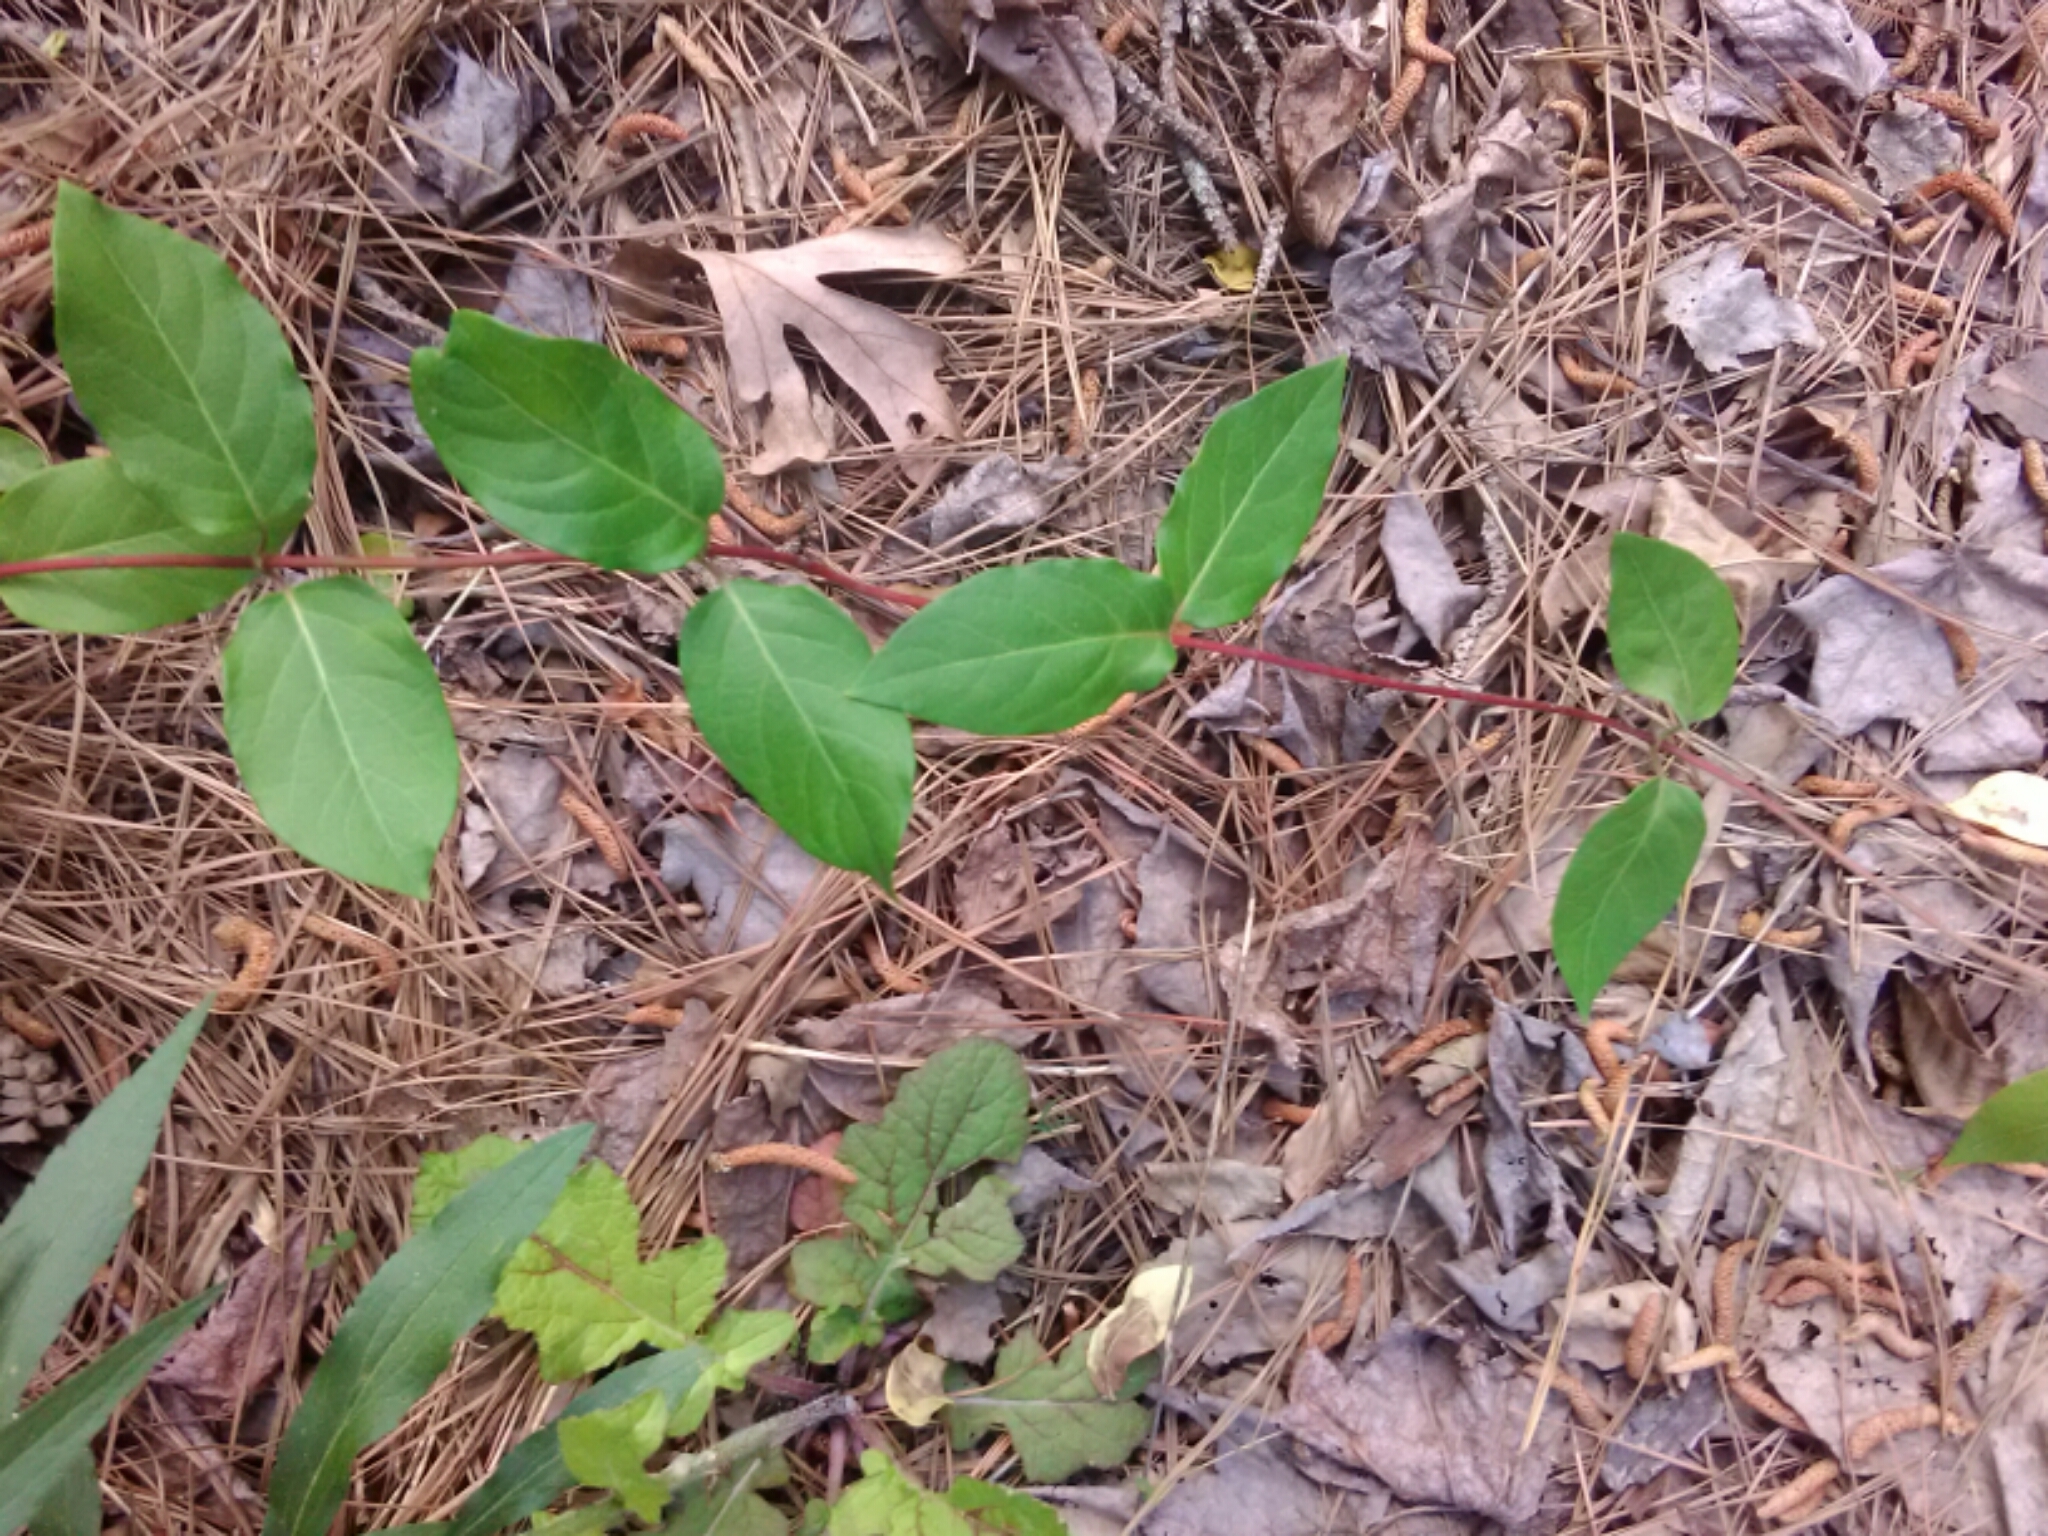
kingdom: Plantae
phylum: Tracheophyta
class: Magnoliopsida
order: Dipsacales
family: Caprifoliaceae
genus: Lonicera
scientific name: Lonicera japonica
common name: Japanese honeysuckle
